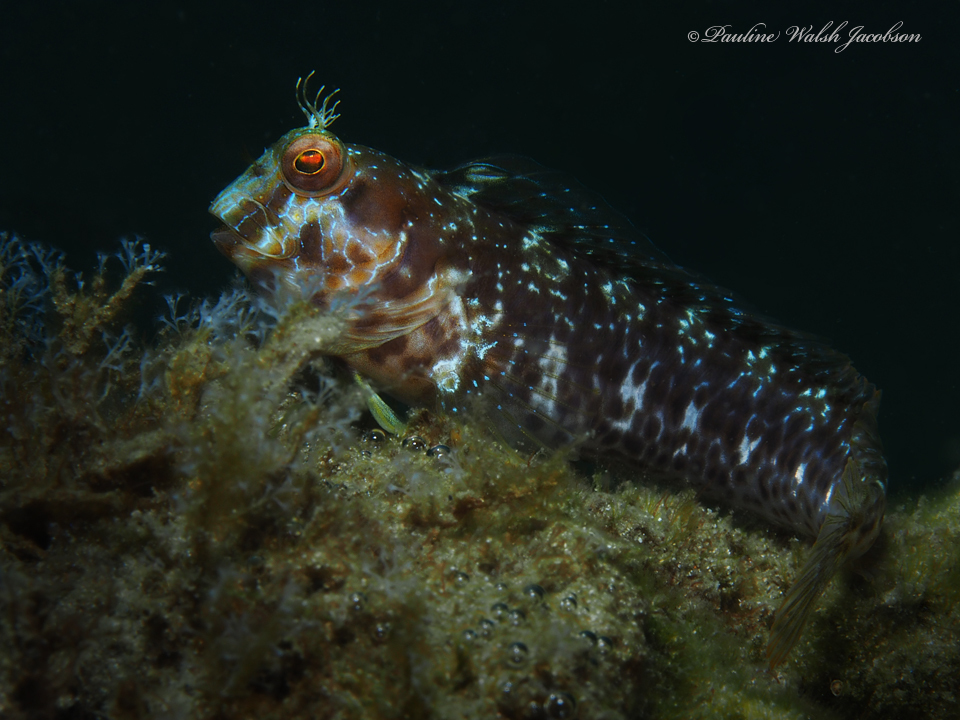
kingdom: Animalia
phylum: Chordata
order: Perciformes
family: Blenniidae
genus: Parablennius
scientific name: Parablennius marmoreus
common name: Seaweed blenny
